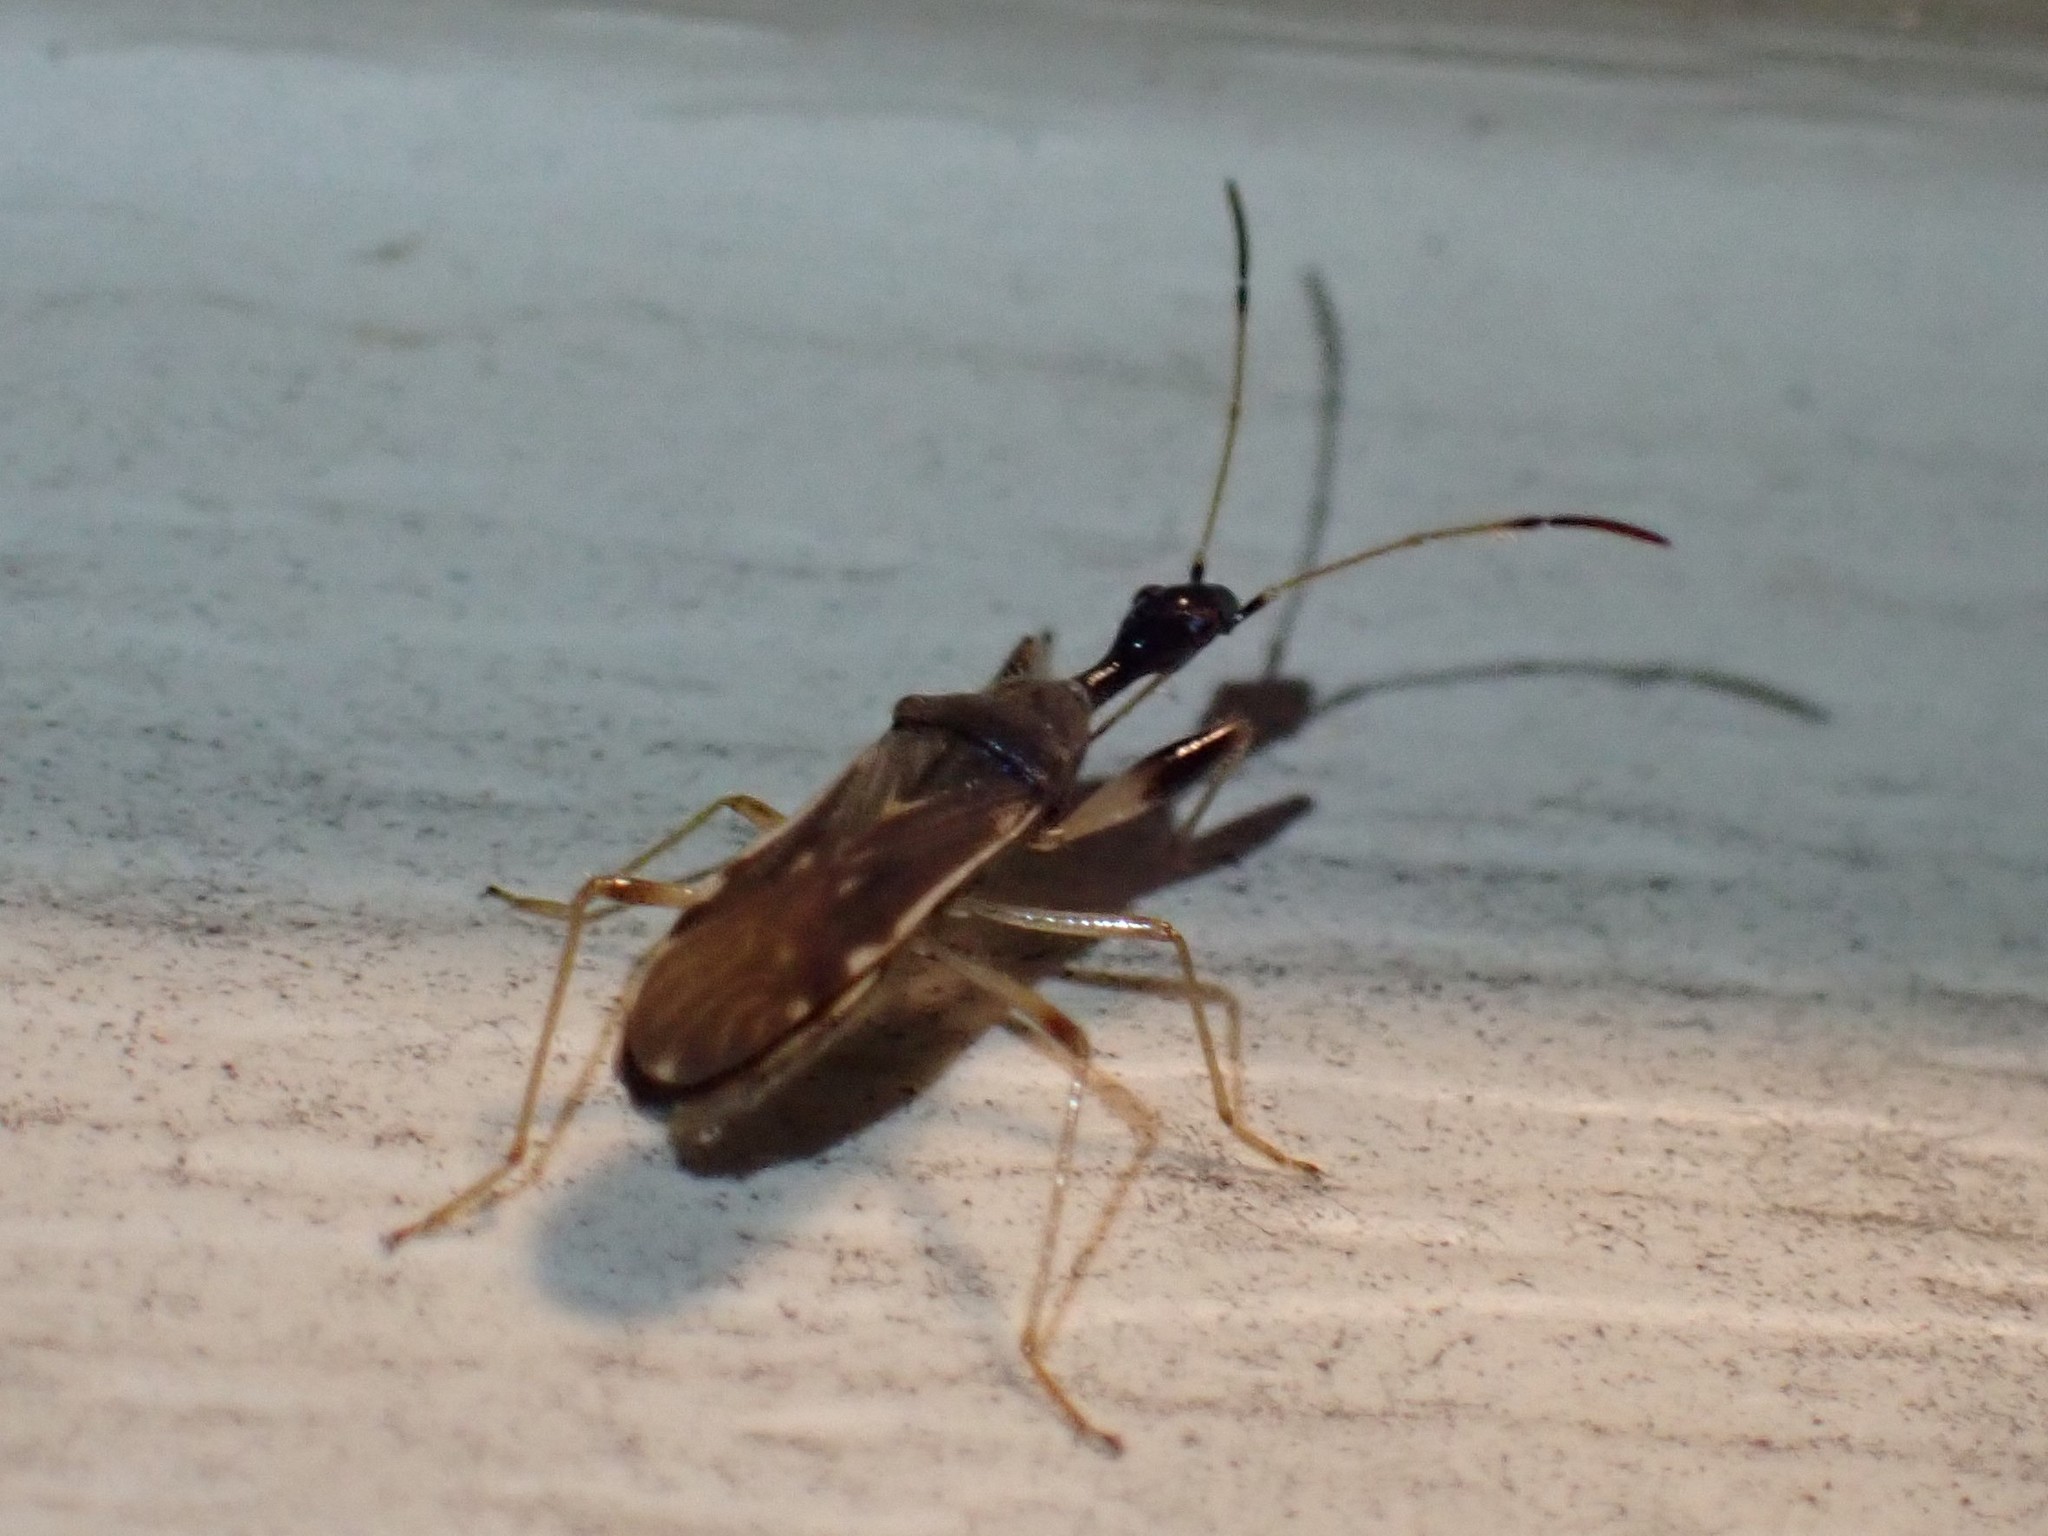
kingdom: Animalia
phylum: Arthropoda
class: Insecta
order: Hemiptera
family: Rhyparochromidae
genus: Myodocha
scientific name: Myodocha serripes
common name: Long-necked seed bug
